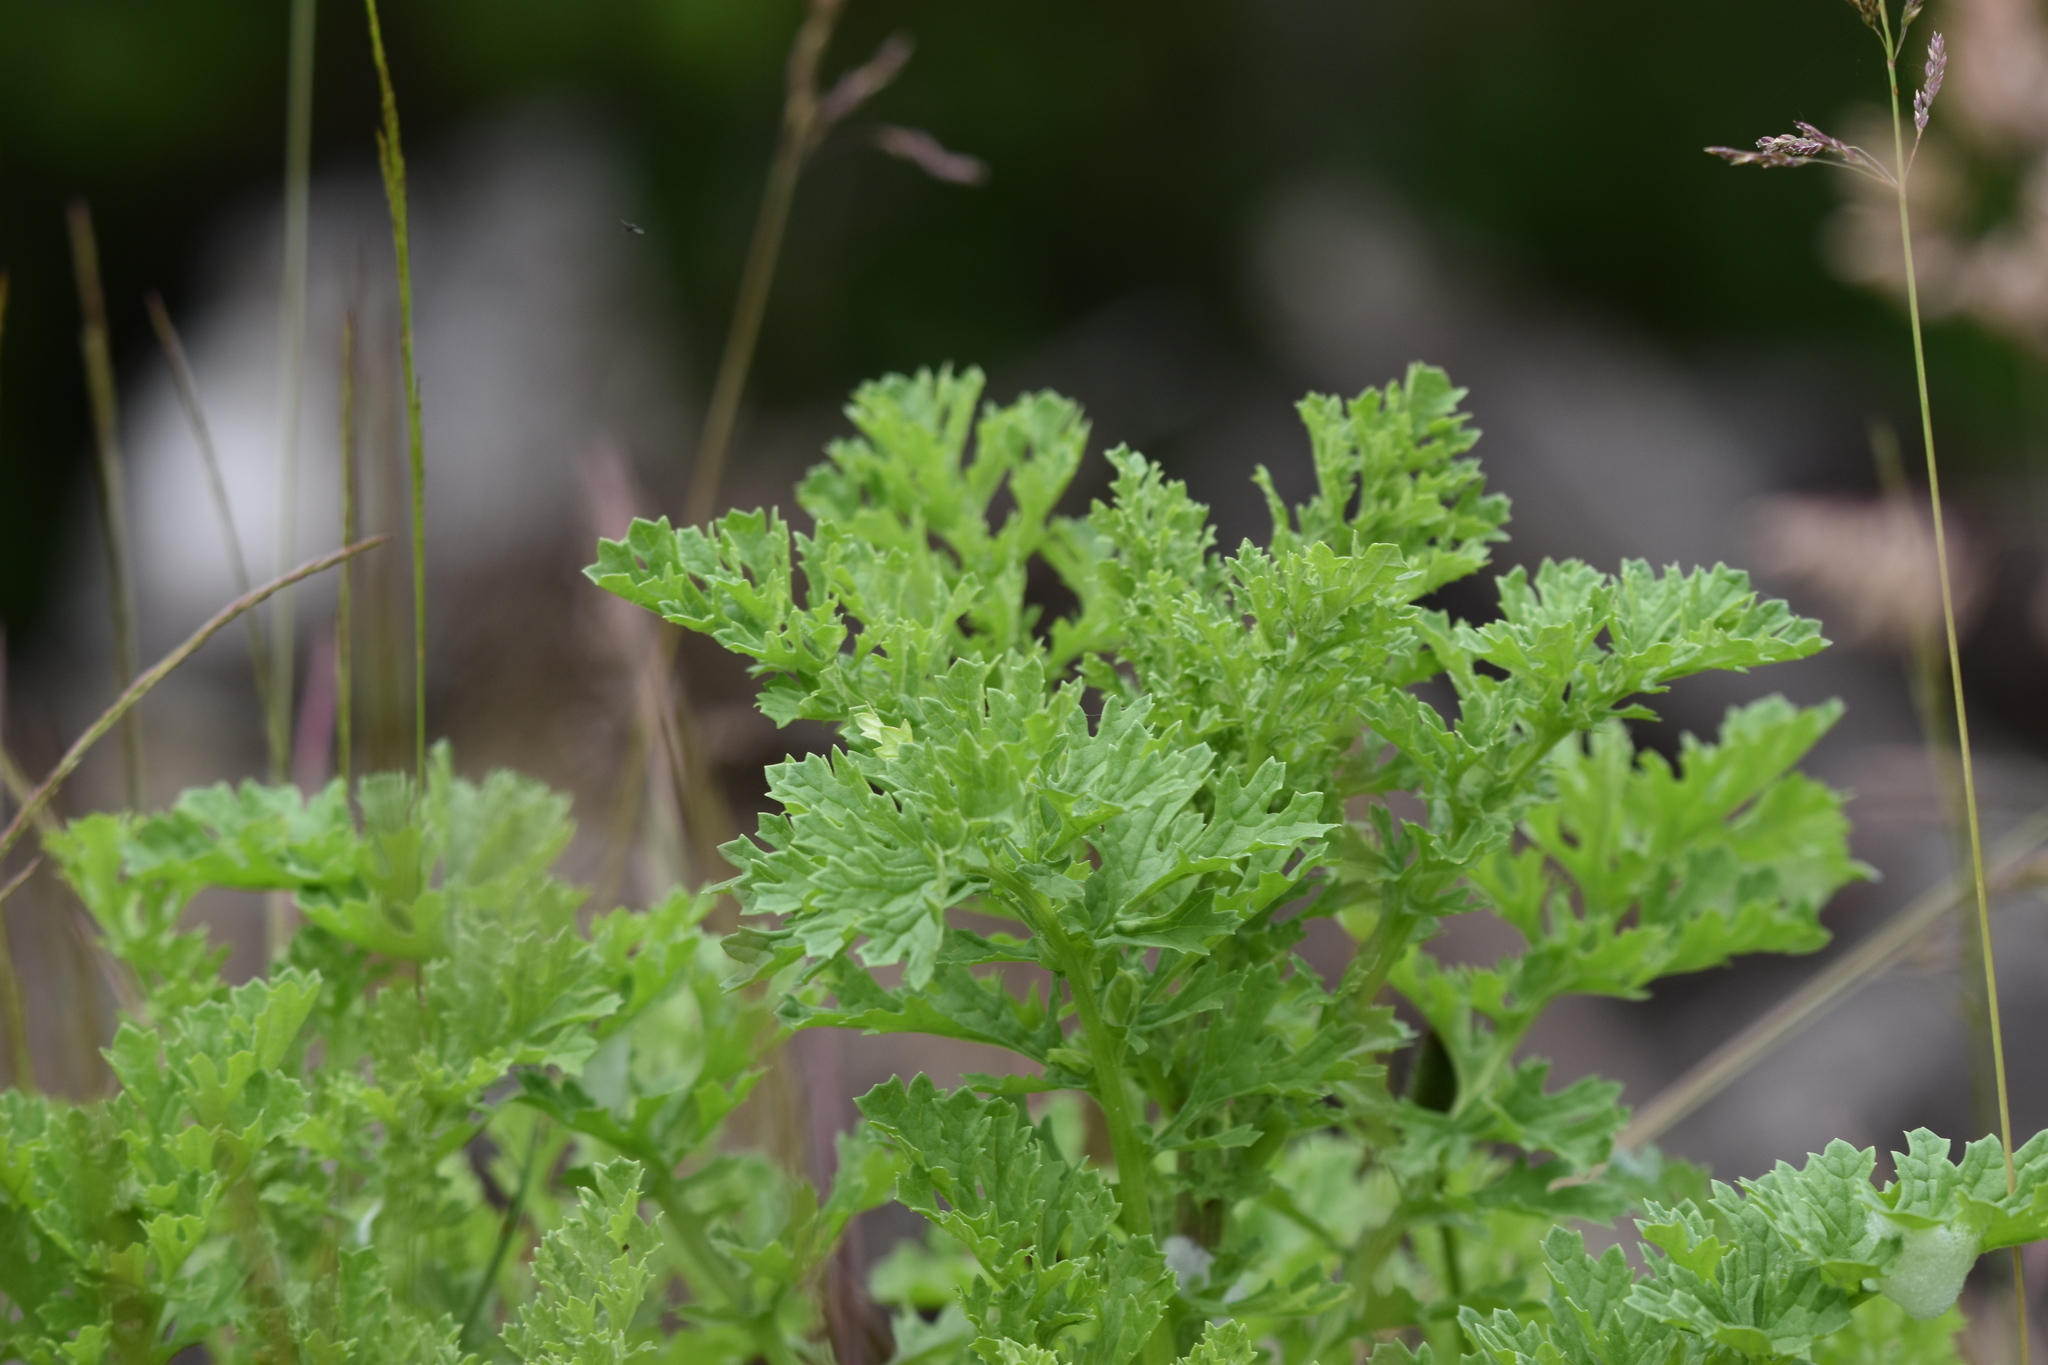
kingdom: Plantae
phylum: Tracheophyta
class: Magnoliopsida
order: Asterales
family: Asteraceae
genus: Jacobaea
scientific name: Jacobaea vulgaris
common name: Stinking willie
